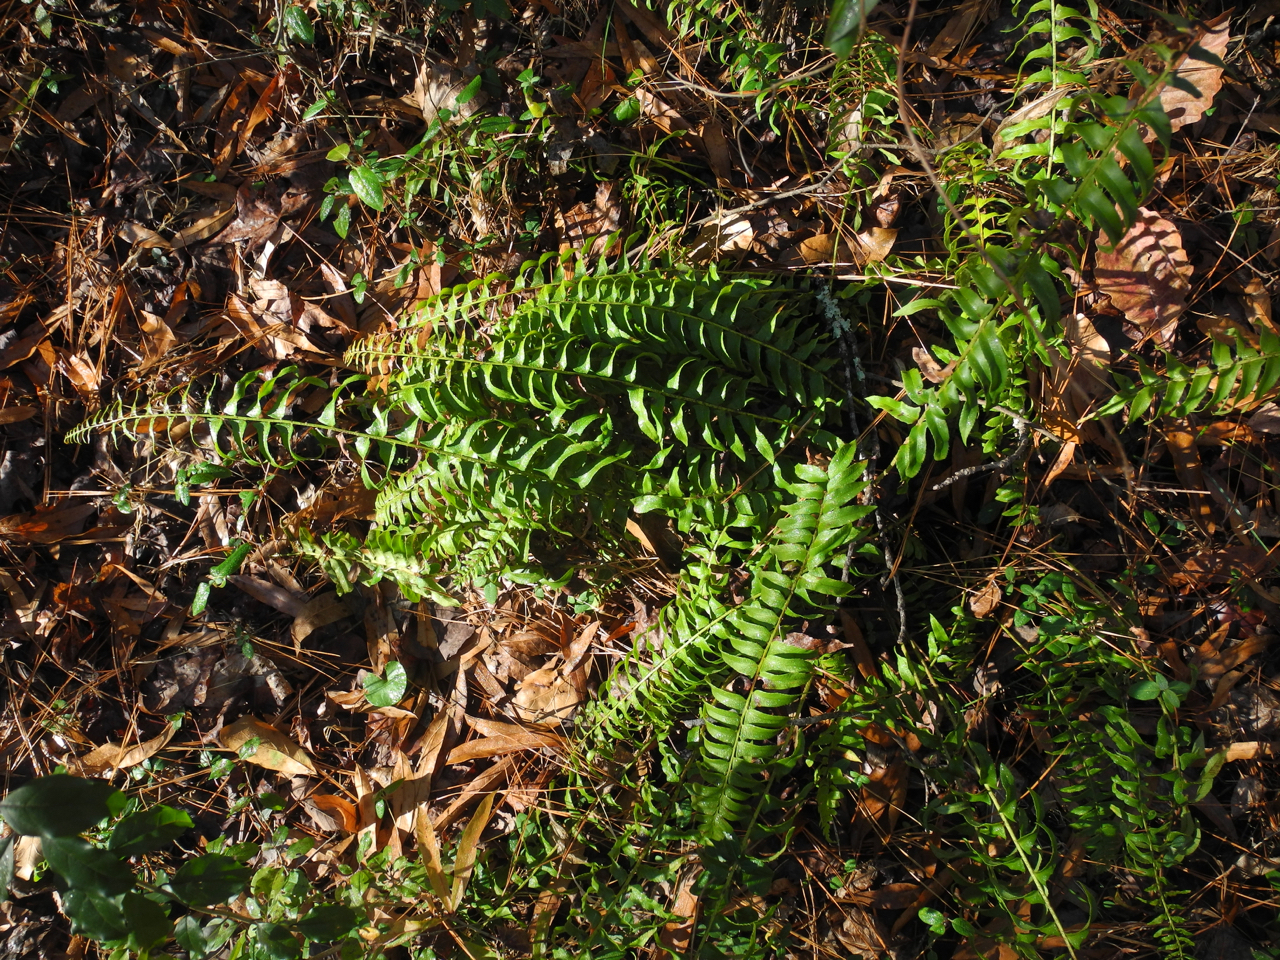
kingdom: Plantae
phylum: Tracheophyta
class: Polypodiopsida
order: Polypodiales
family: Dryopteridaceae
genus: Polystichum
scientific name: Polystichum acrostichoides
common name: Christmas fern
